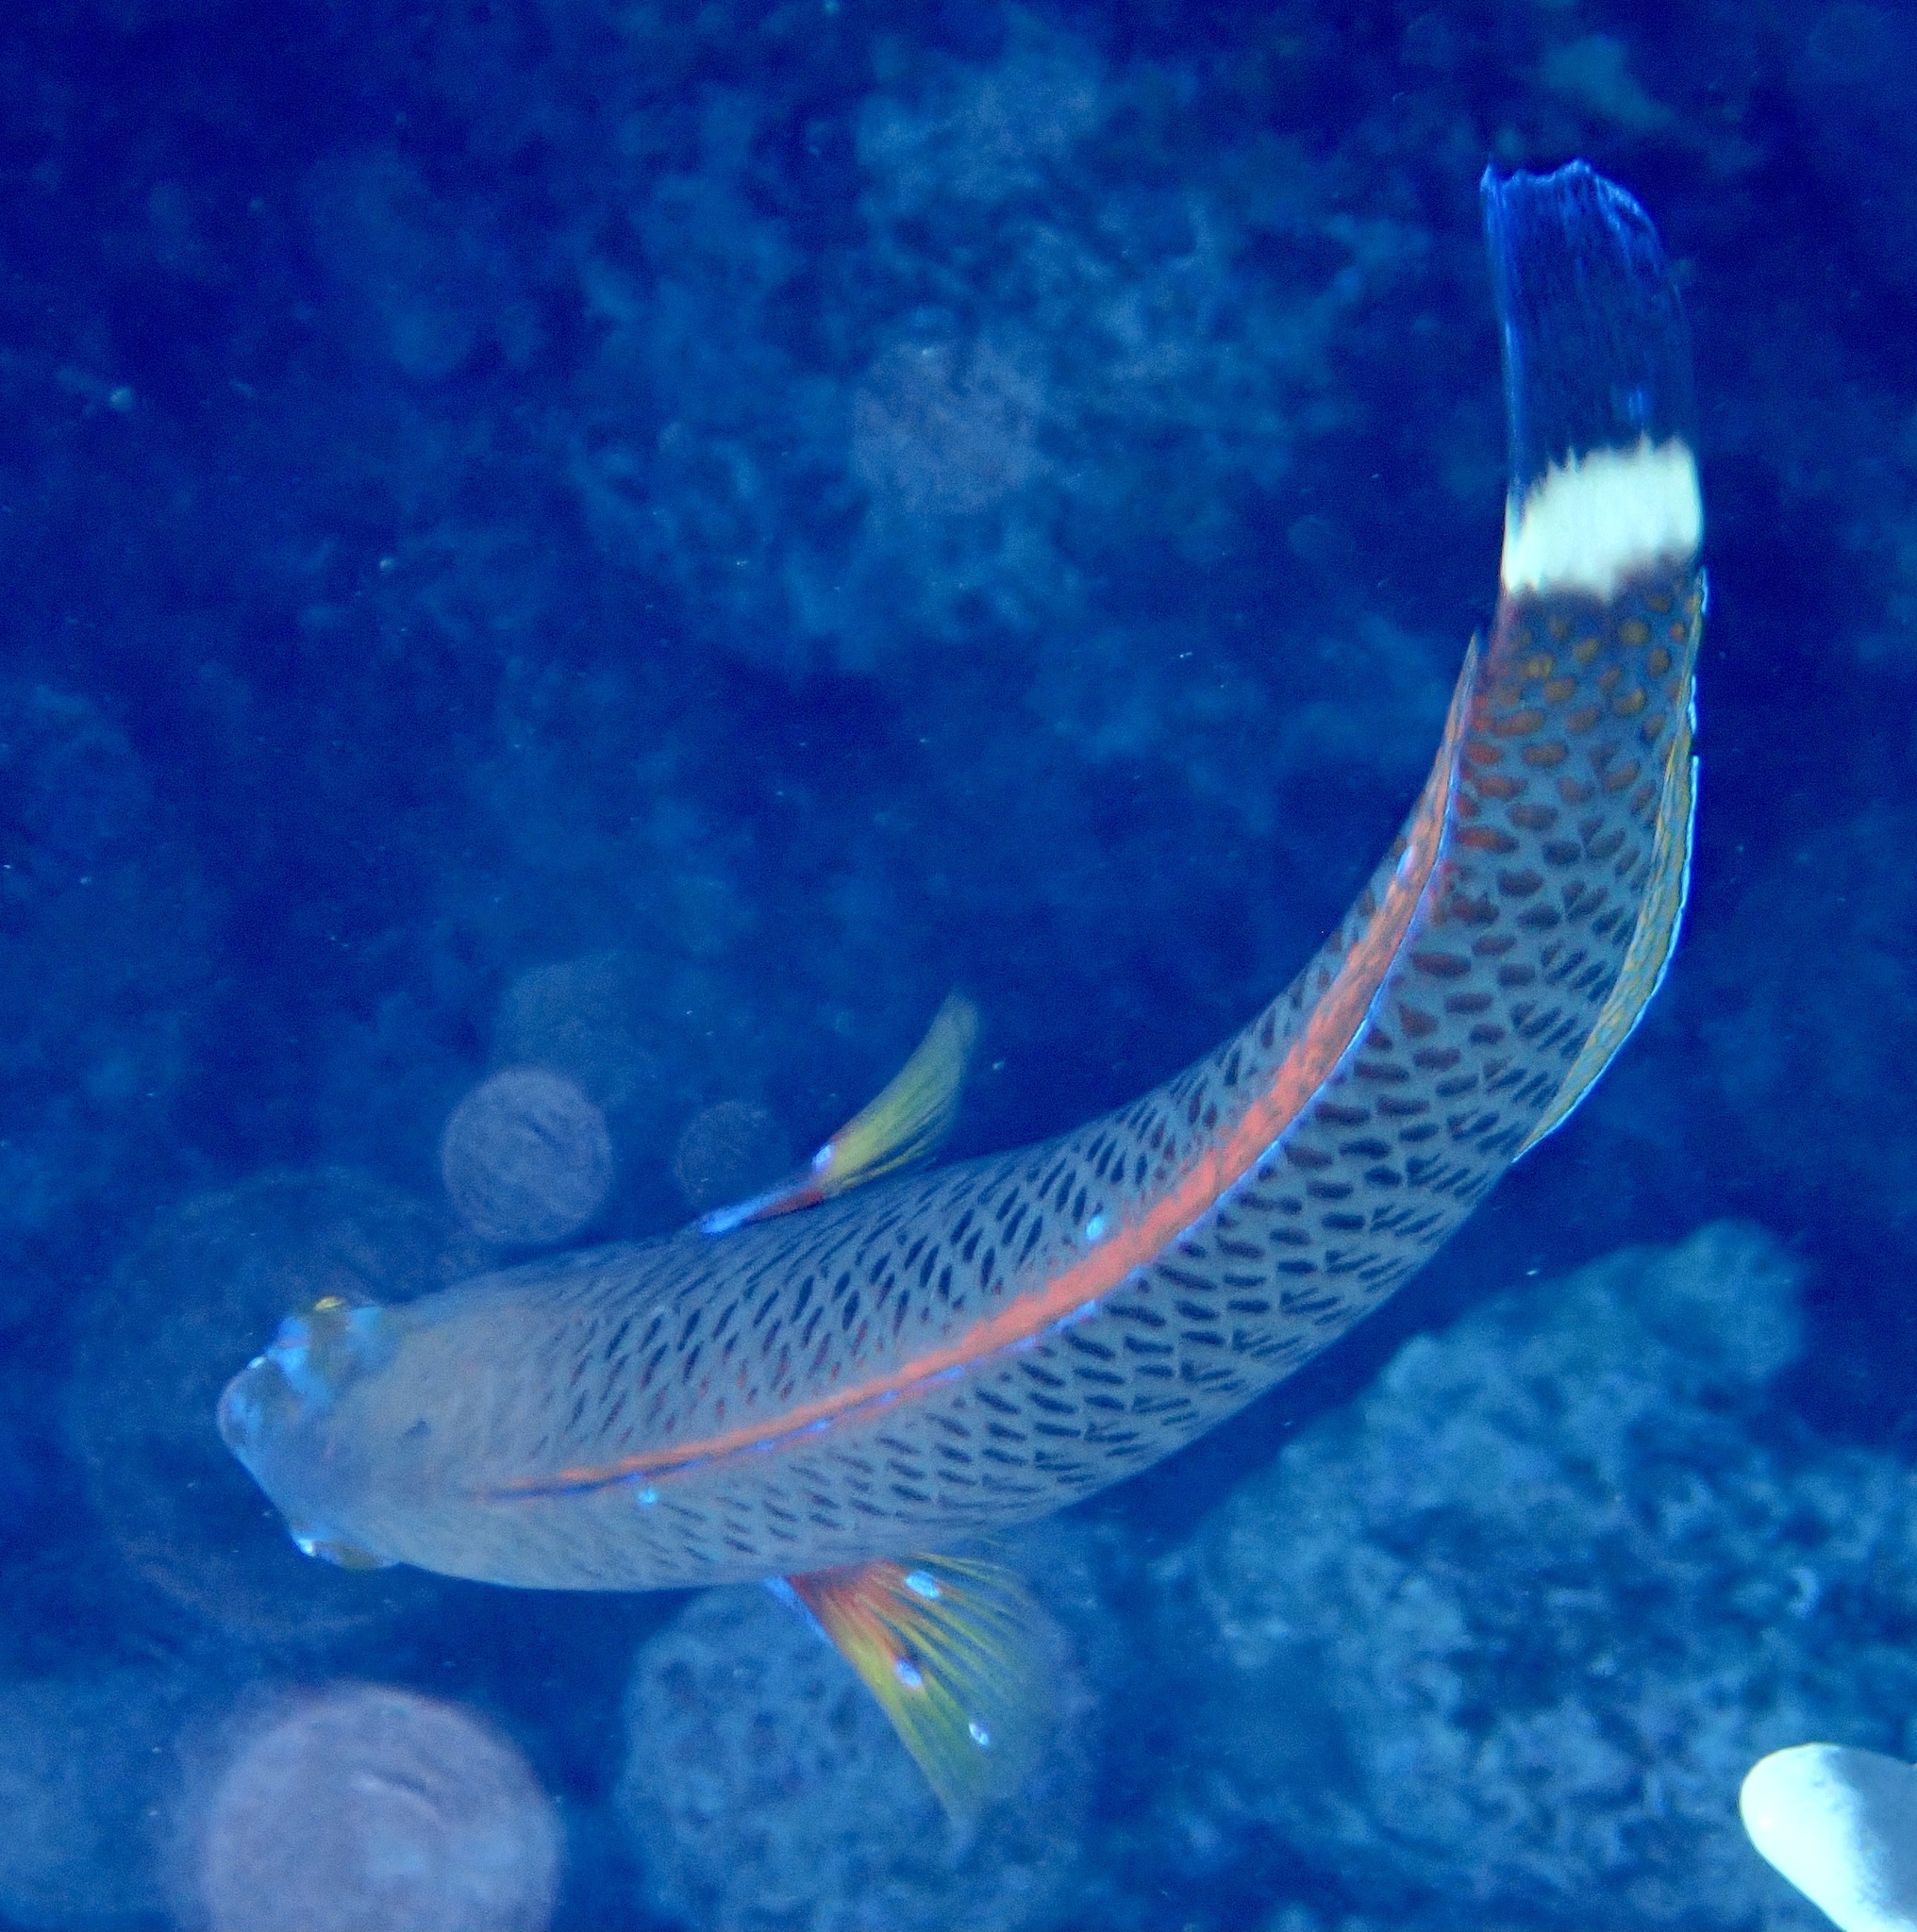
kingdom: Animalia
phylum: Chordata
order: Perciformes
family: Labridae
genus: Pseudodax
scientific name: Pseudodax moluccanus
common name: Chiseltooth wrasse
